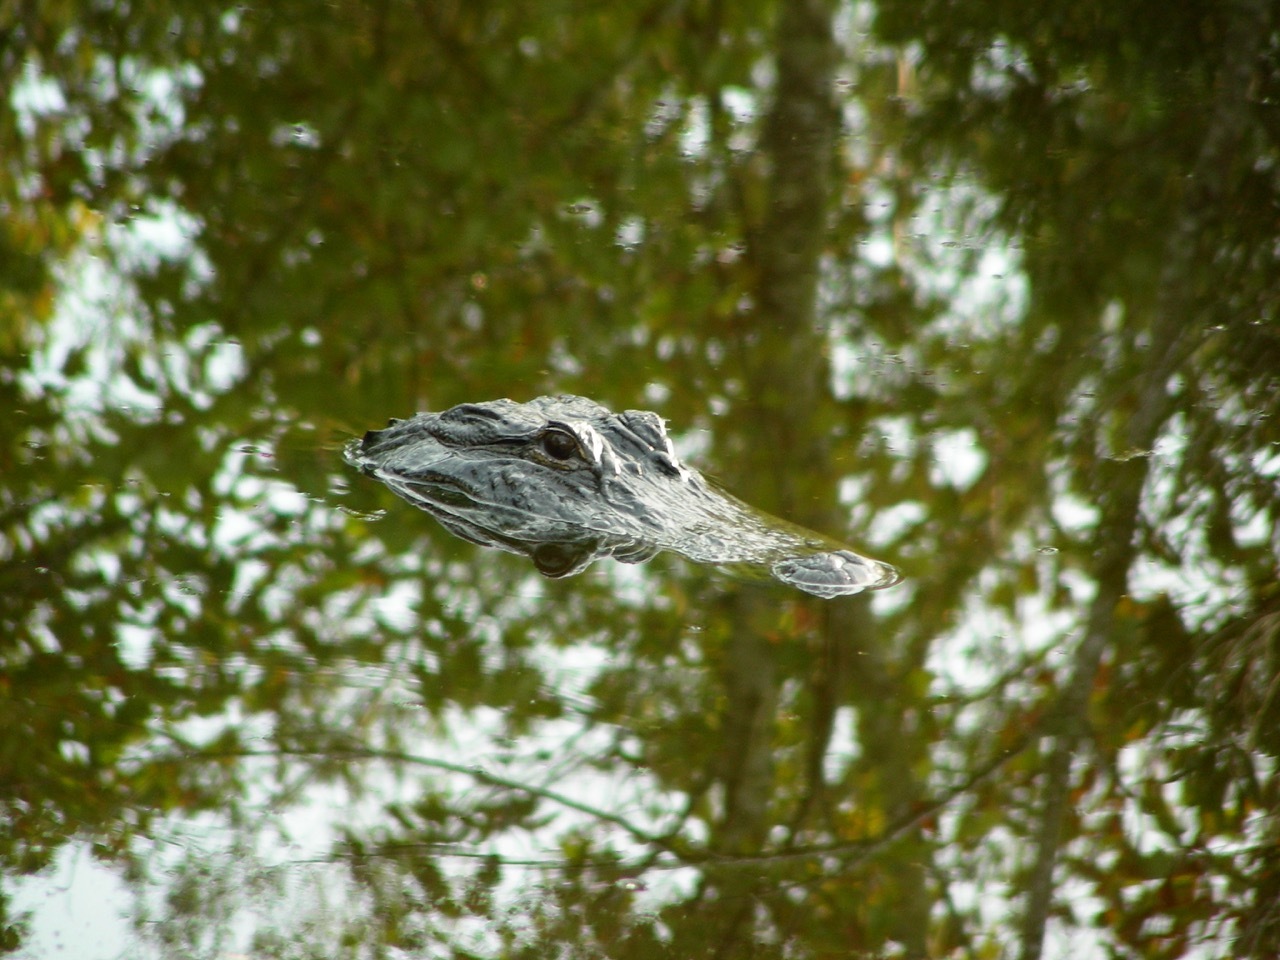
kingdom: Animalia
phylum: Chordata
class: Crocodylia
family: Alligatoridae
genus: Alligator
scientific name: Alligator mississippiensis
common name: American alligator
